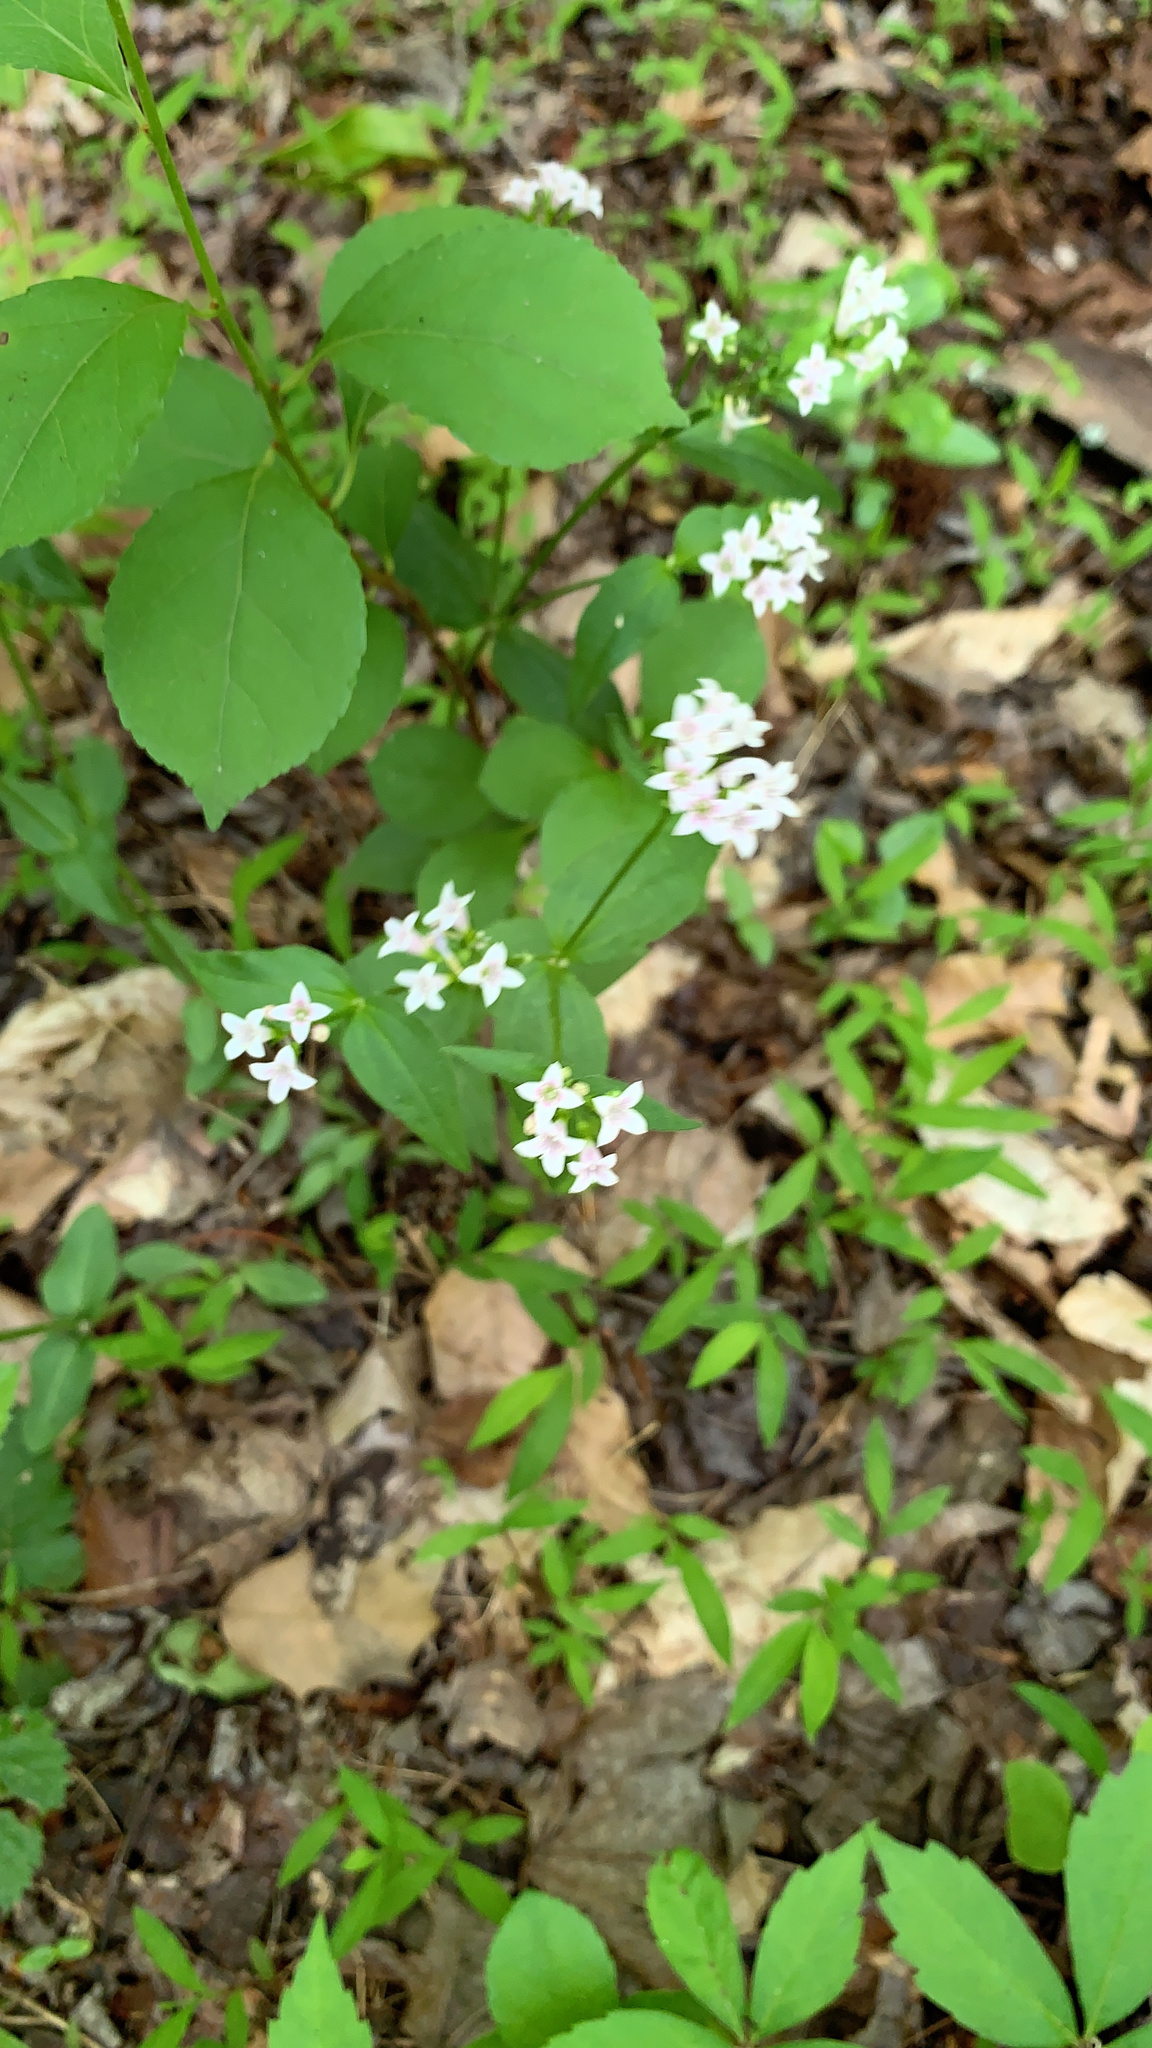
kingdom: Plantae
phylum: Tracheophyta
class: Magnoliopsida
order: Gentianales
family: Rubiaceae
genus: Houstonia
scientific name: Houstonia purpurea
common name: Summer bluet
